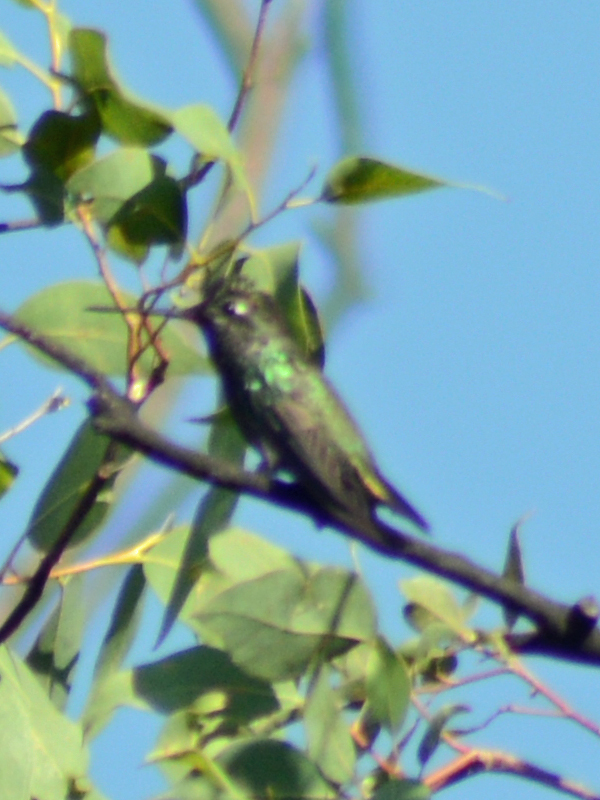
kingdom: Animalia
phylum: Chordata
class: Aves
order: Apodiformes
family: Trochilidae
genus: Eugenes
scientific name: Eugenes fulgens
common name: Magnificent hummingbird
